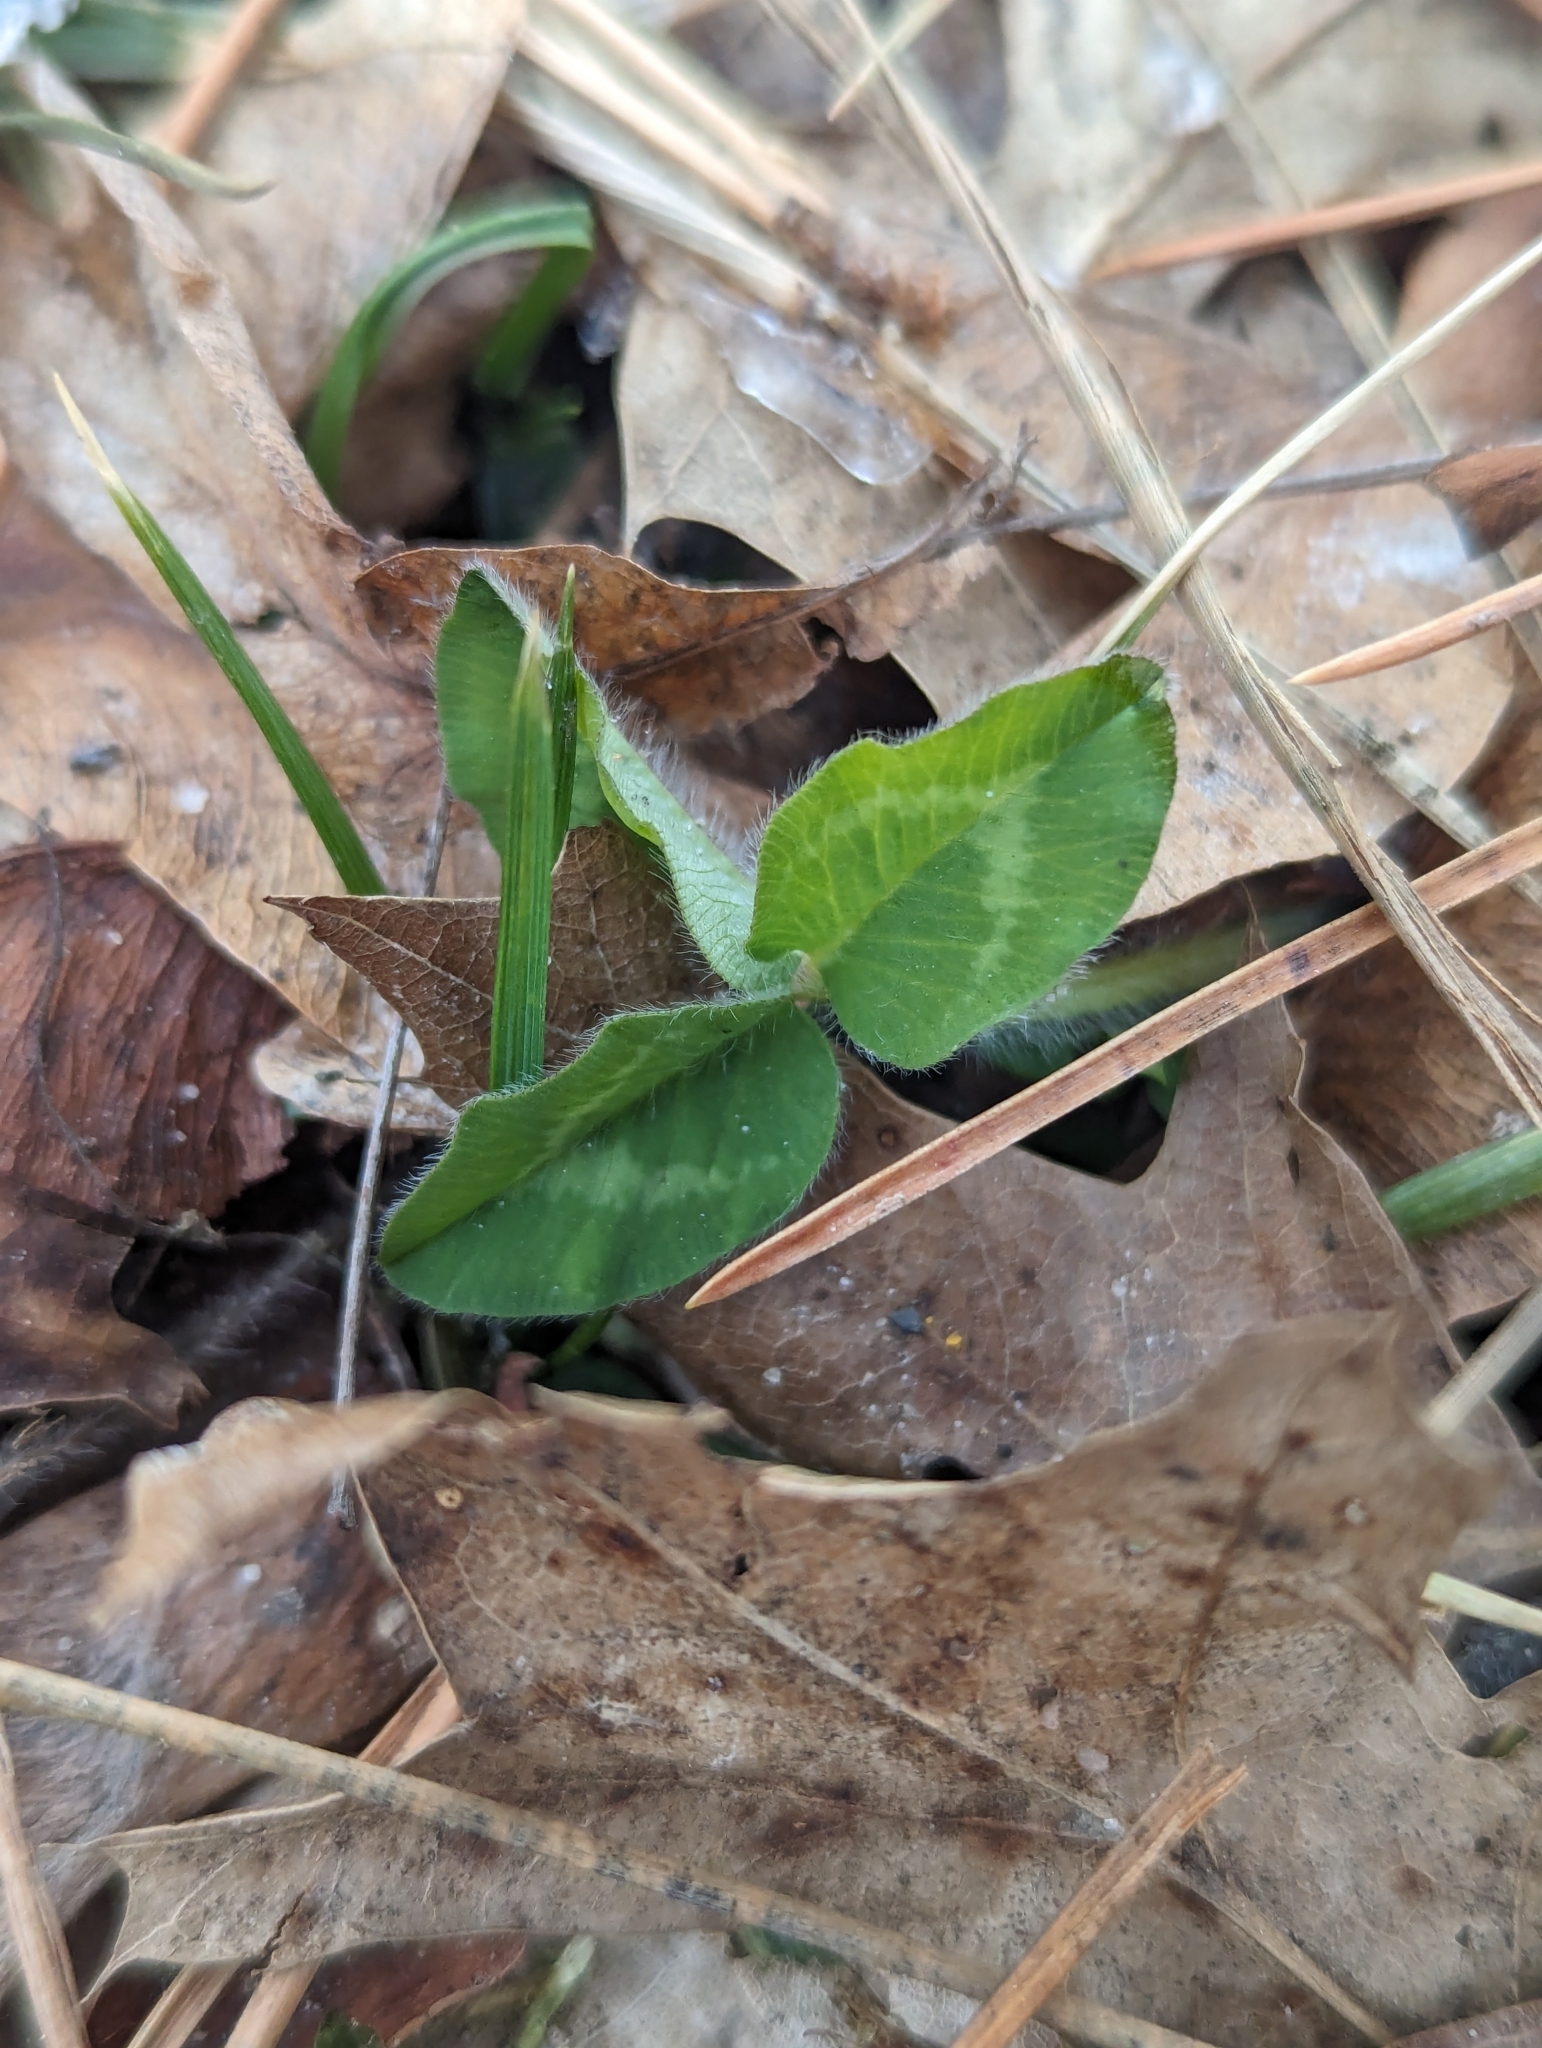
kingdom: Plantae
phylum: Tracheophyta
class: Magnoliopsida
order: Fabales
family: Fabaceae
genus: Trifolium
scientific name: Trifolium pratense
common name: Red clover
